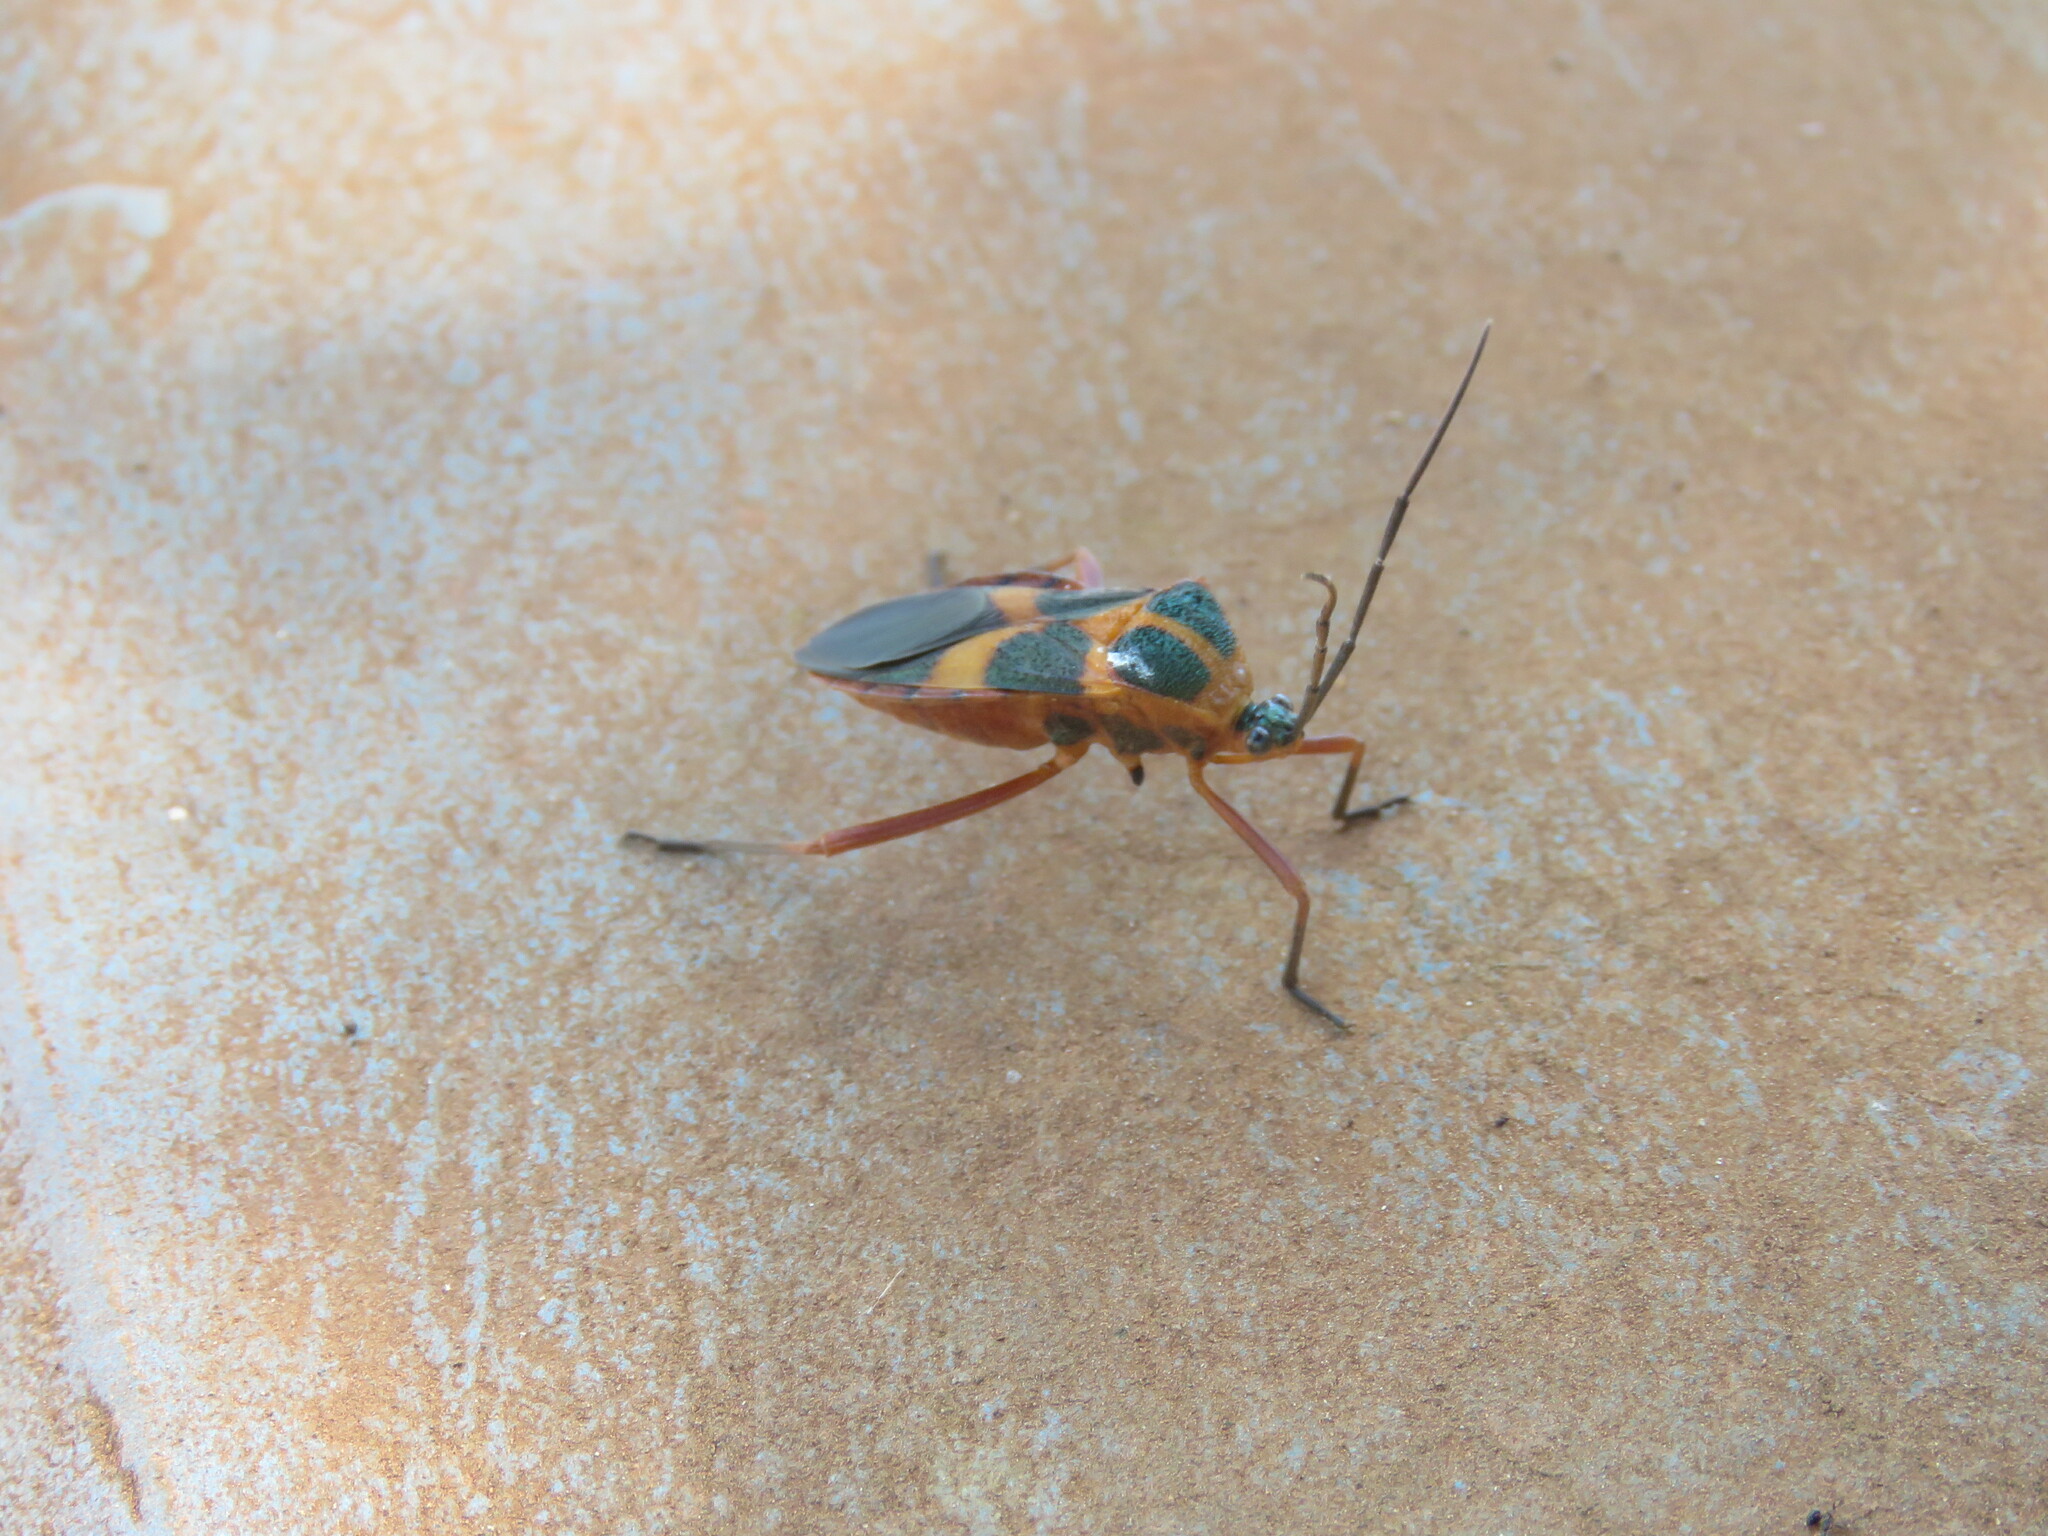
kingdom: Animalia
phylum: Arthropoda
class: Insecta
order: Hemiptera
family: Coreidae
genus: Laminiceps
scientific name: Laminiceps sumptuosus
